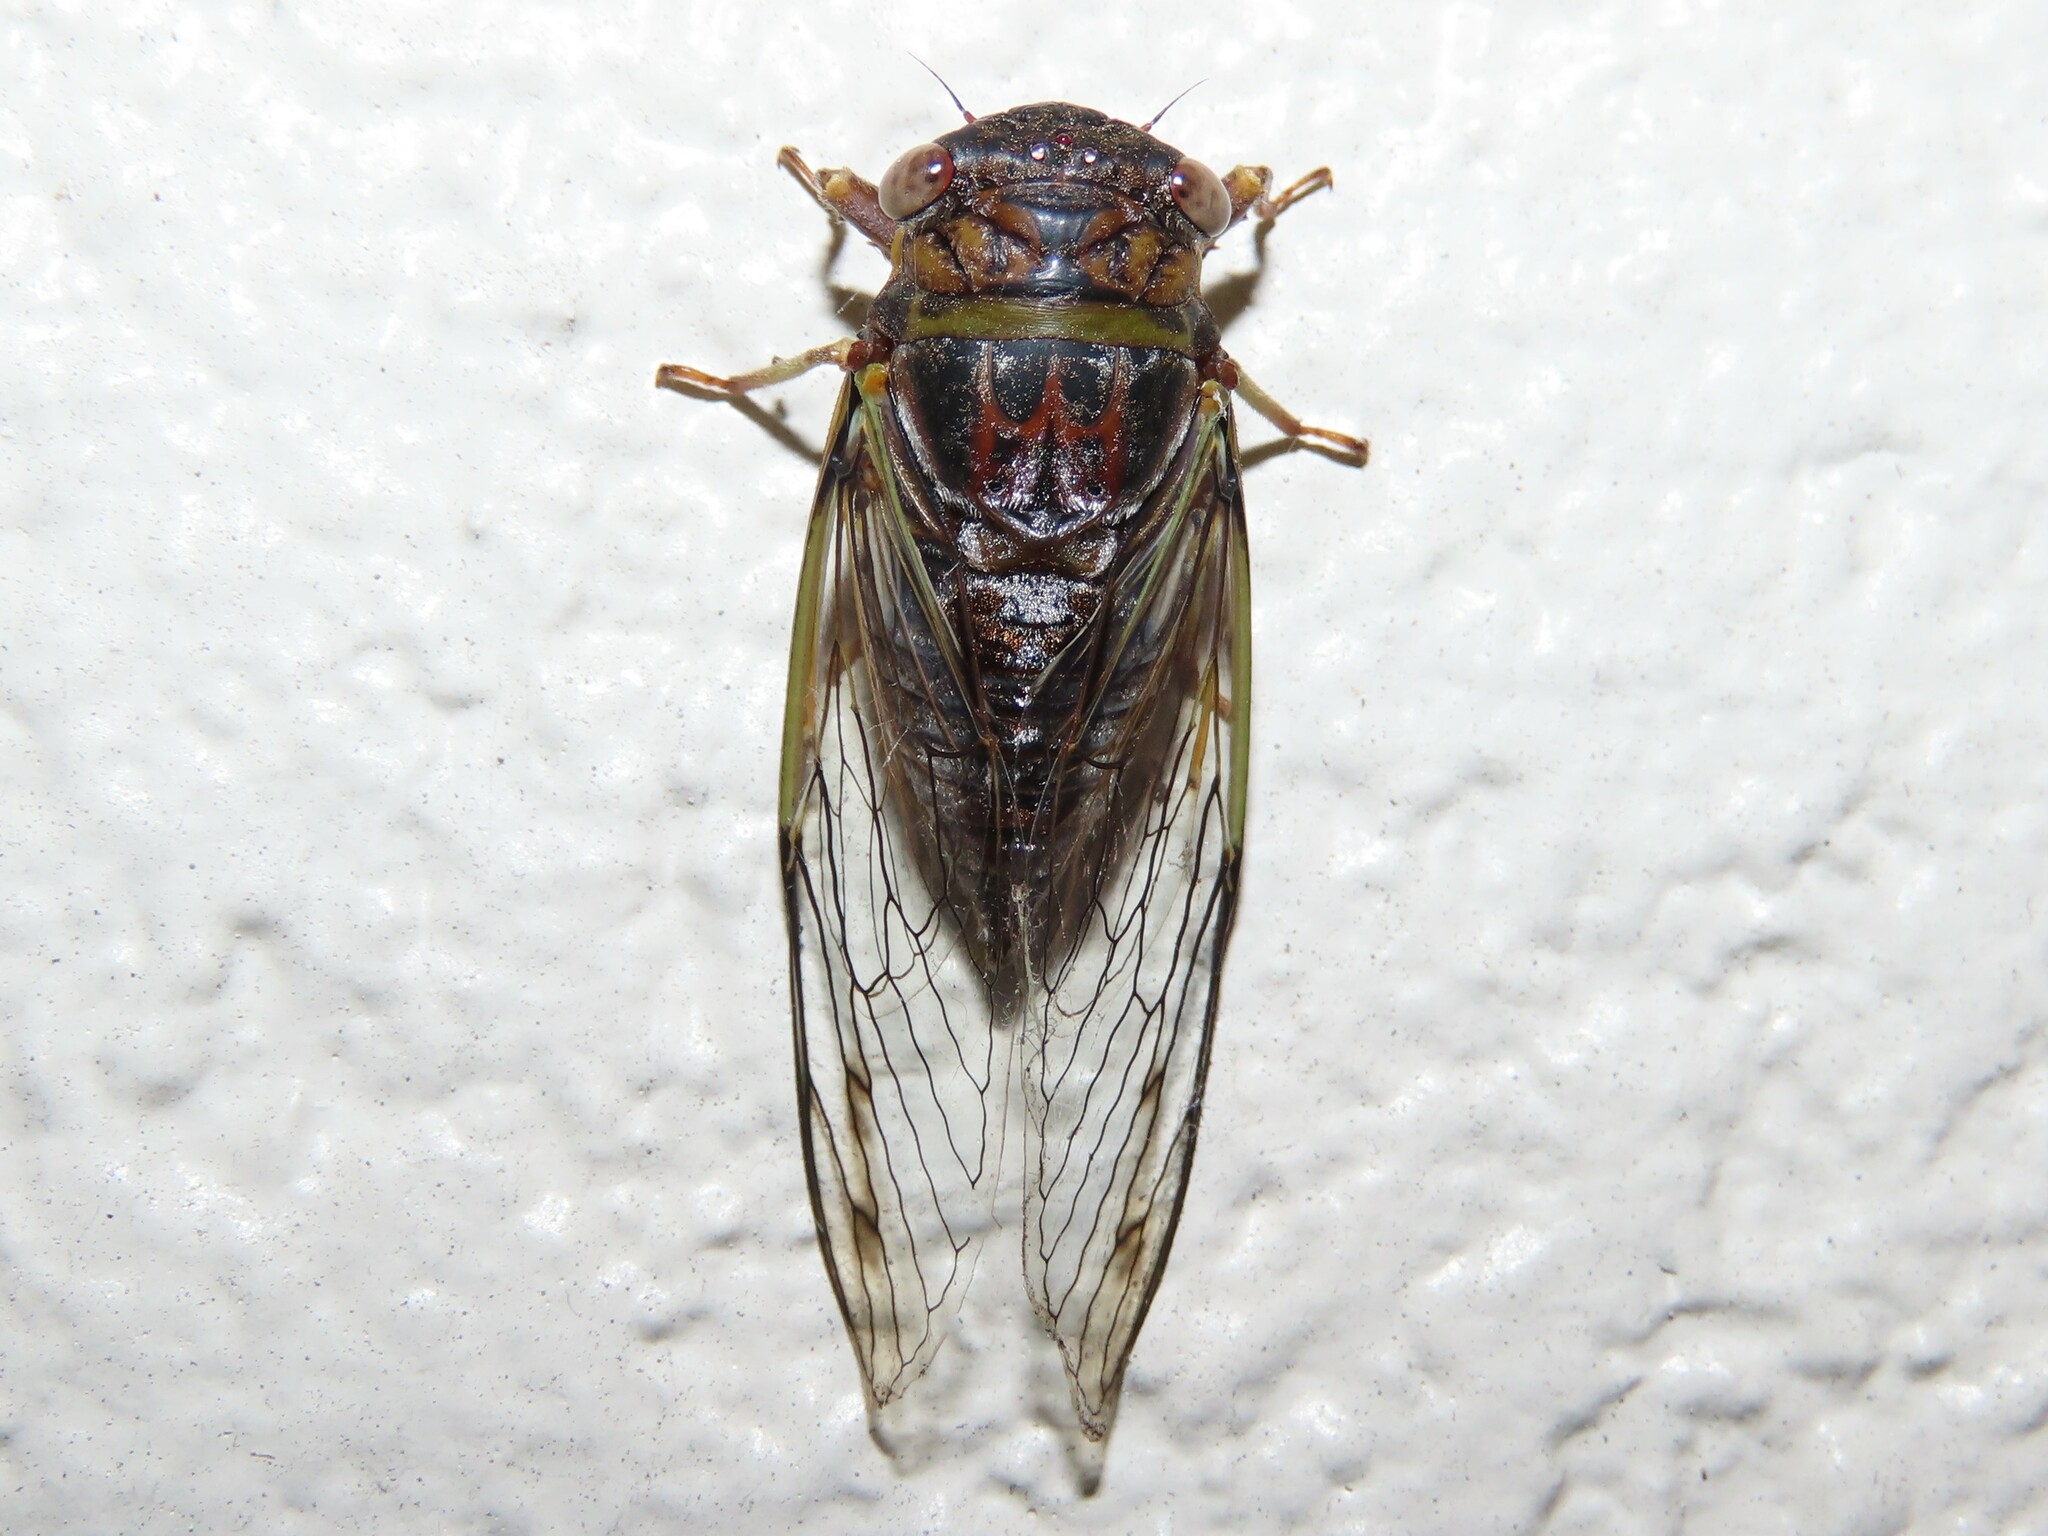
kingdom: Animalia
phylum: Arthropoda
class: Insecta
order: Hemiptera
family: Cicadidae
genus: Diceroprocta
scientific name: Diceroprocta olympusa
